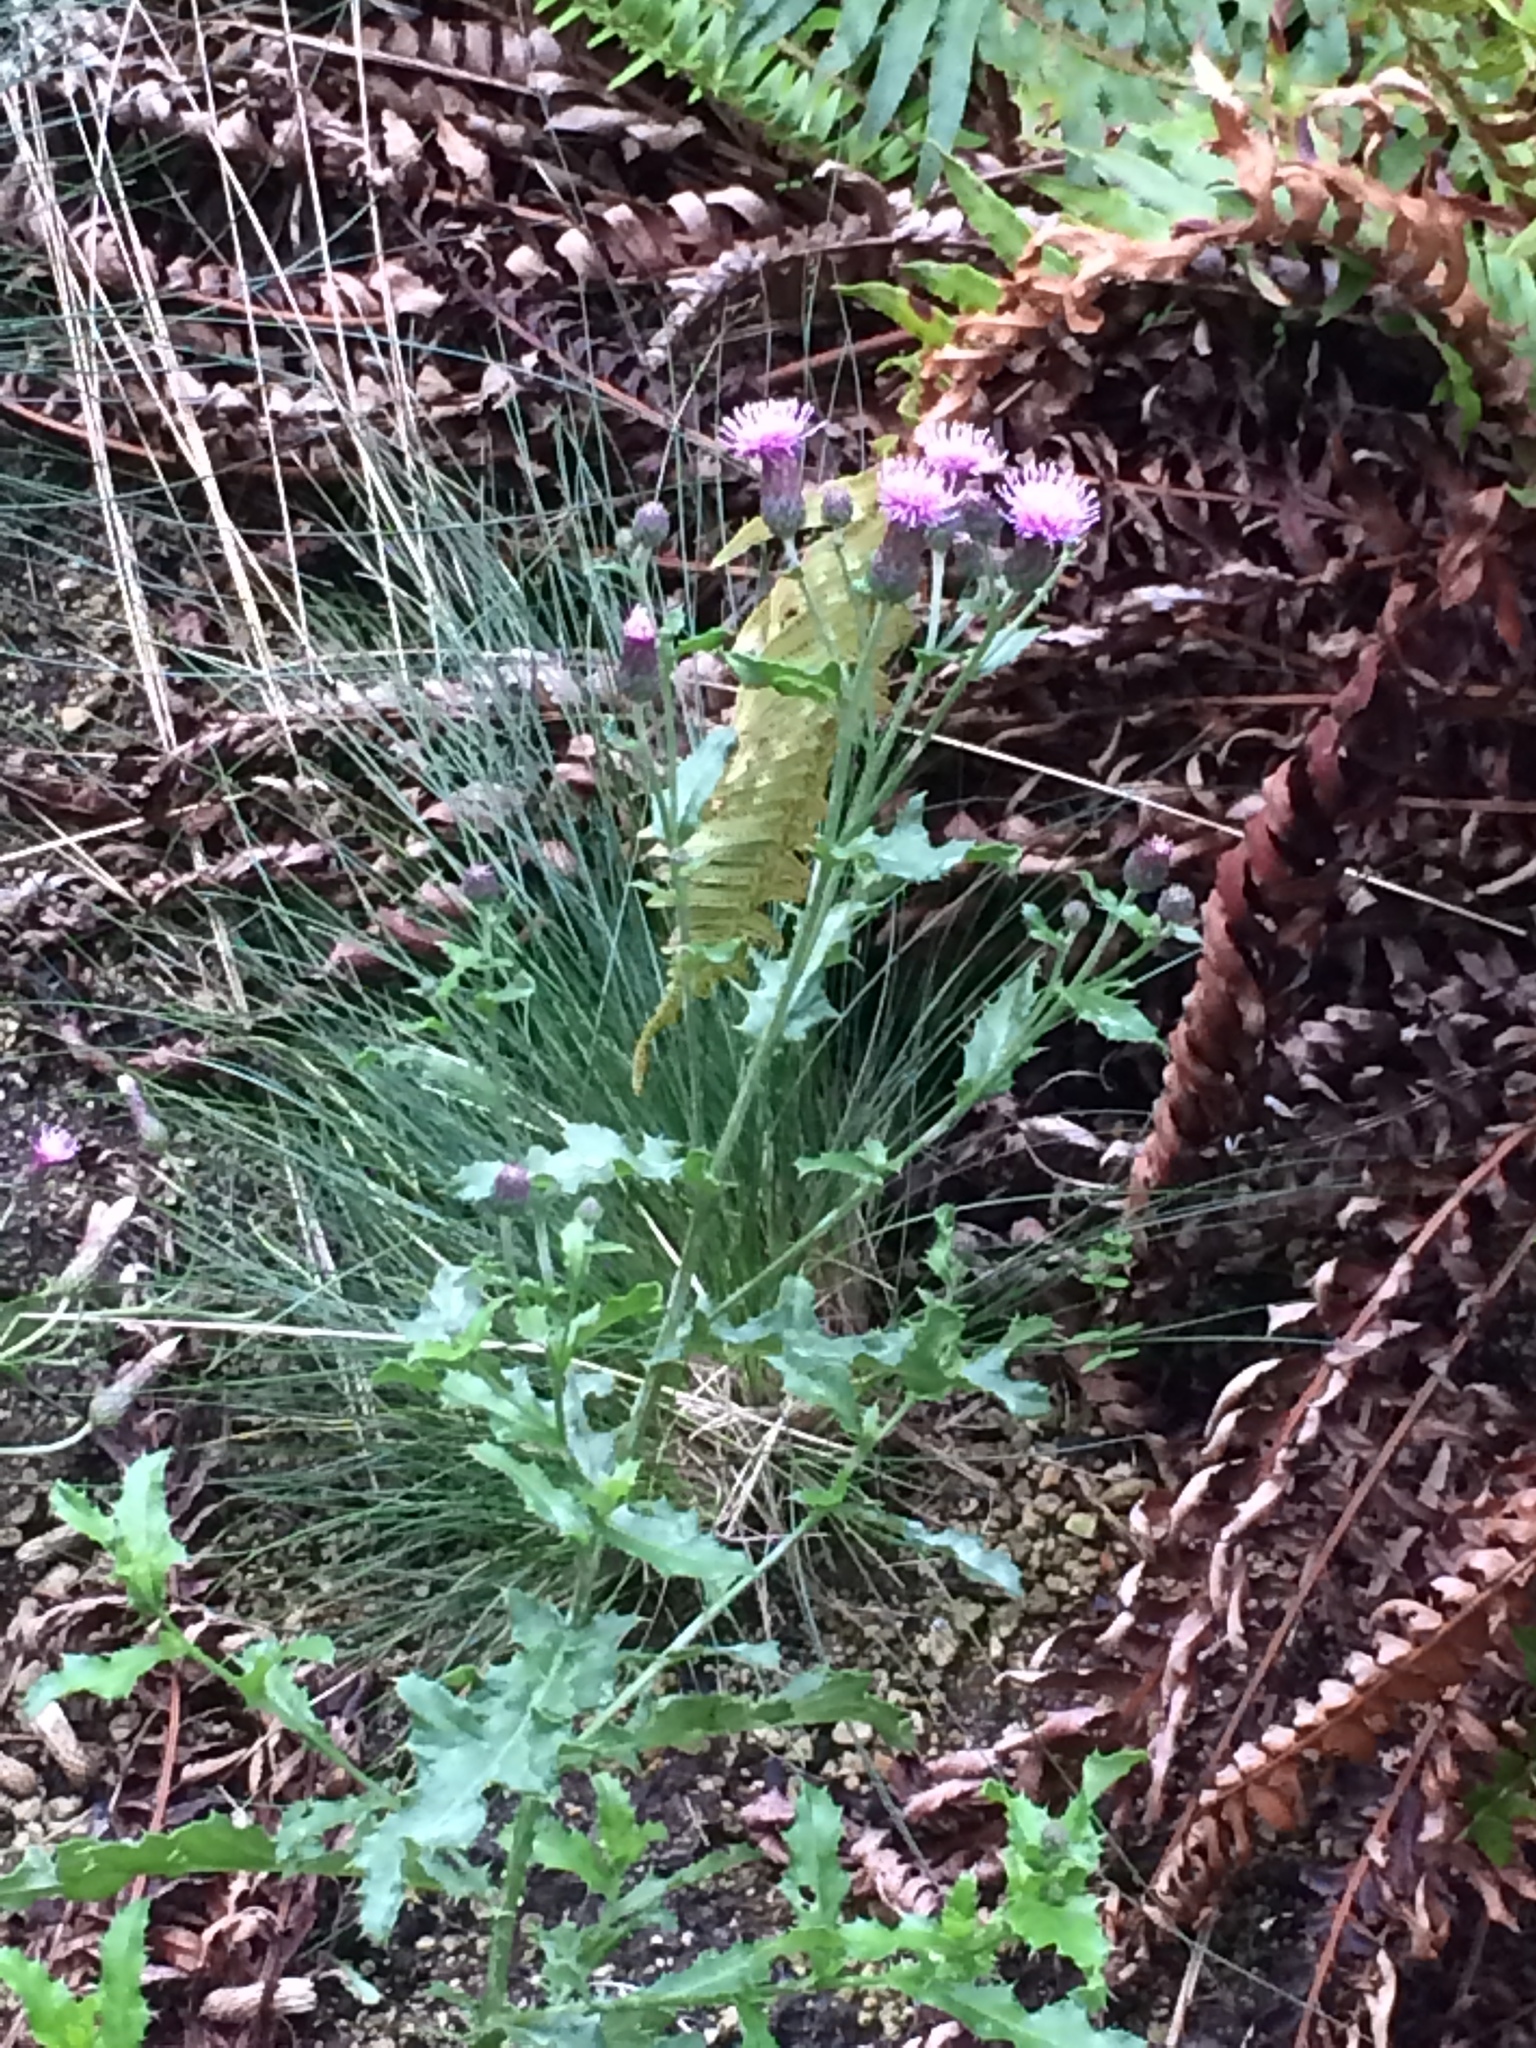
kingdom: Plantae
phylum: Tracheophyta
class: Magnoliopsida
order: Asterales
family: Asteraceae
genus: Cirsium
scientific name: Cirsium arvense
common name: Creeping thistle
